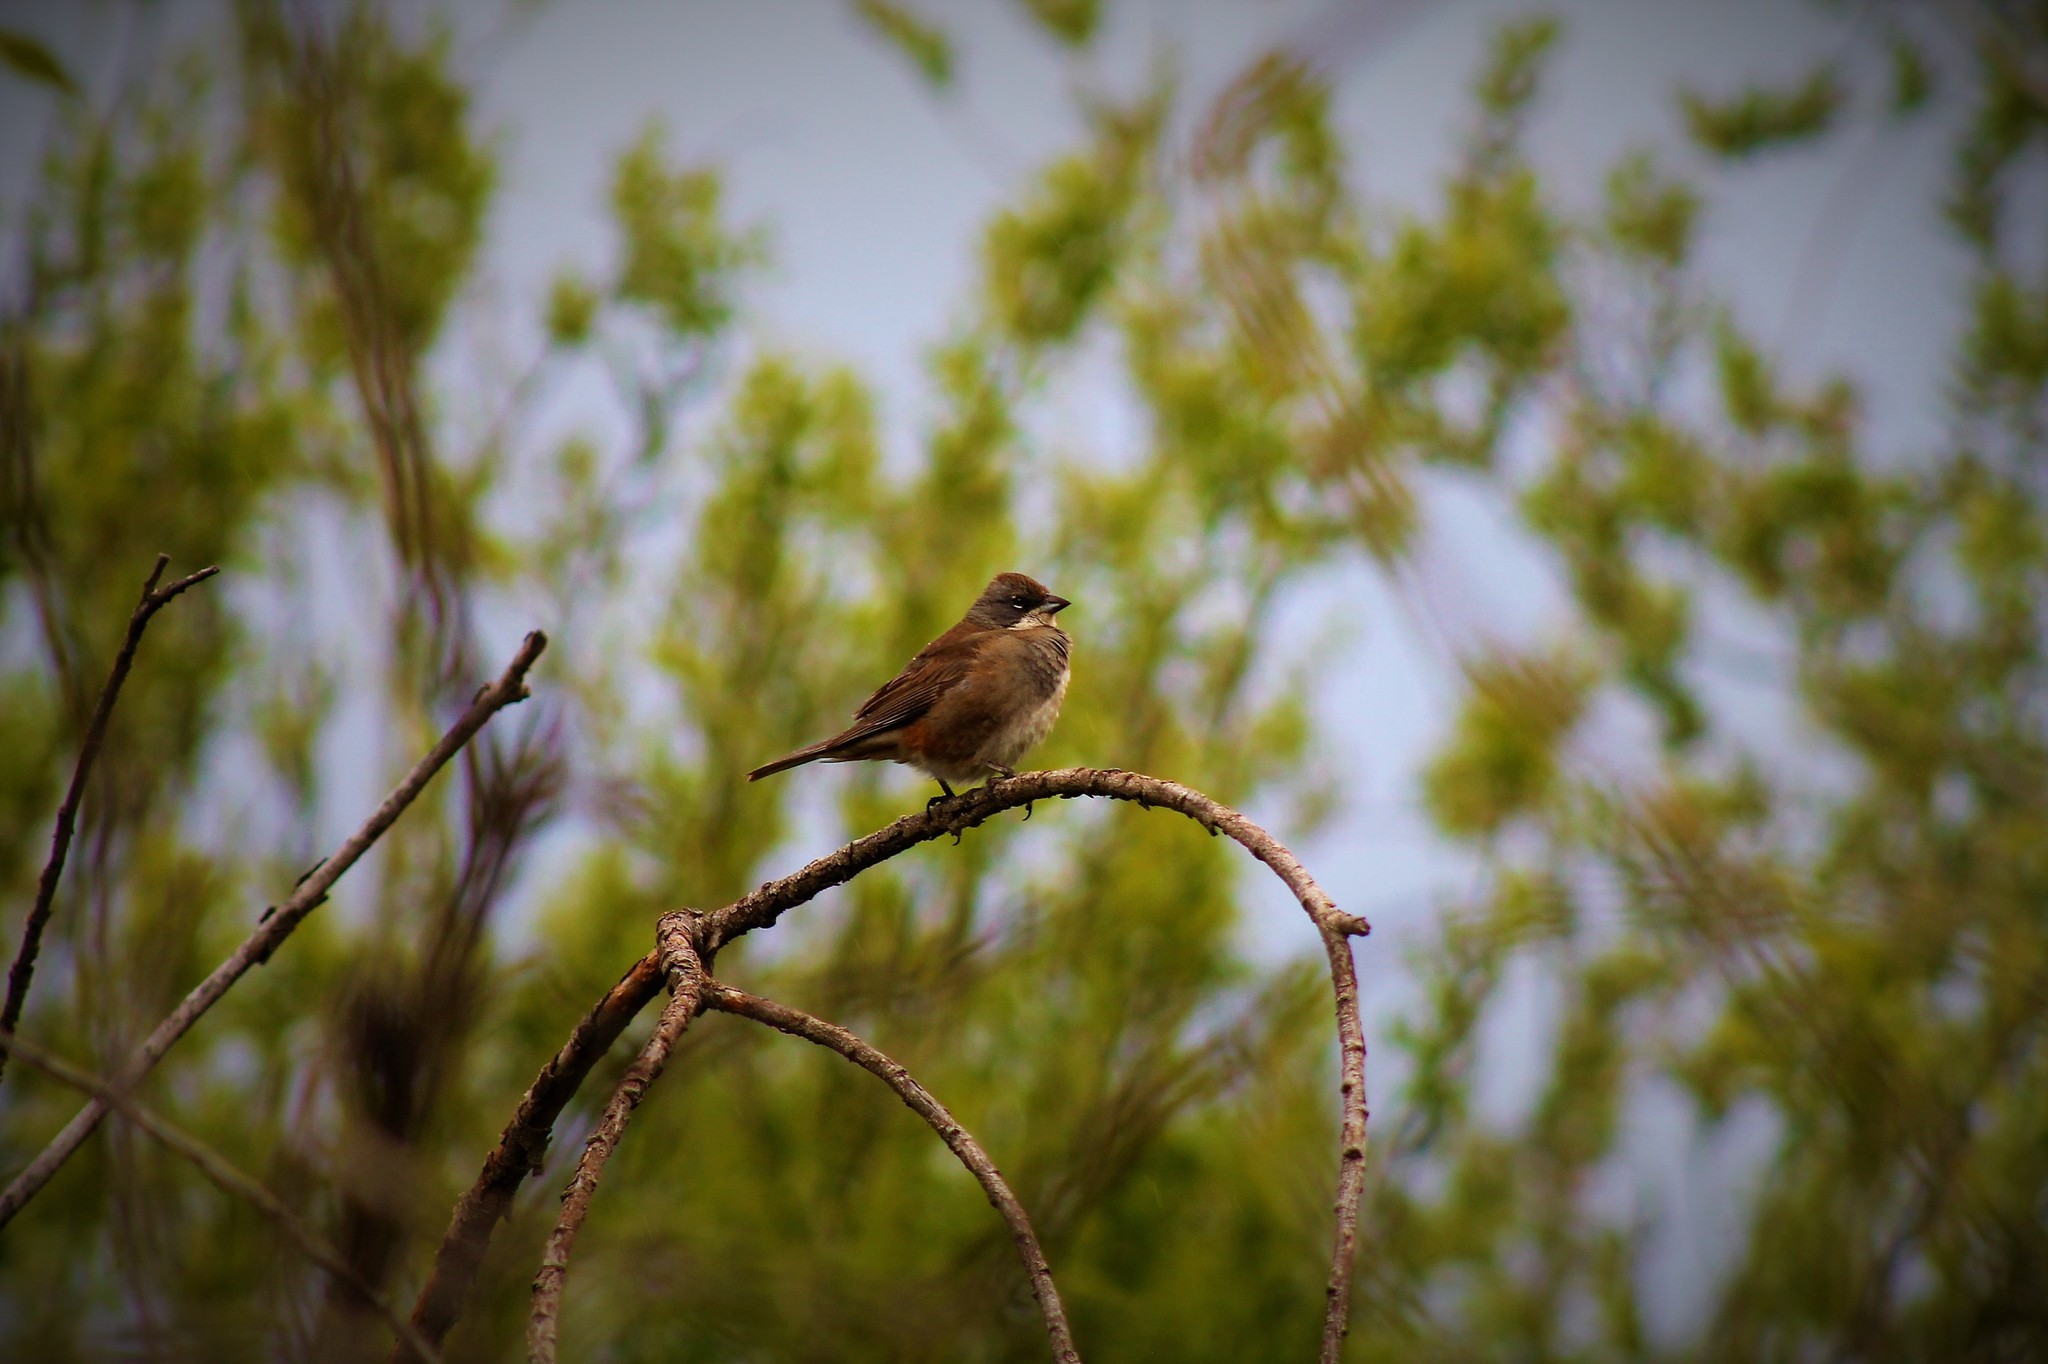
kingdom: Animalia
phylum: Chordata
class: Aves
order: Passeriformes
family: Thraupidae
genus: Diuca
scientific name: Diuca diuca
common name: Common diuca finch
